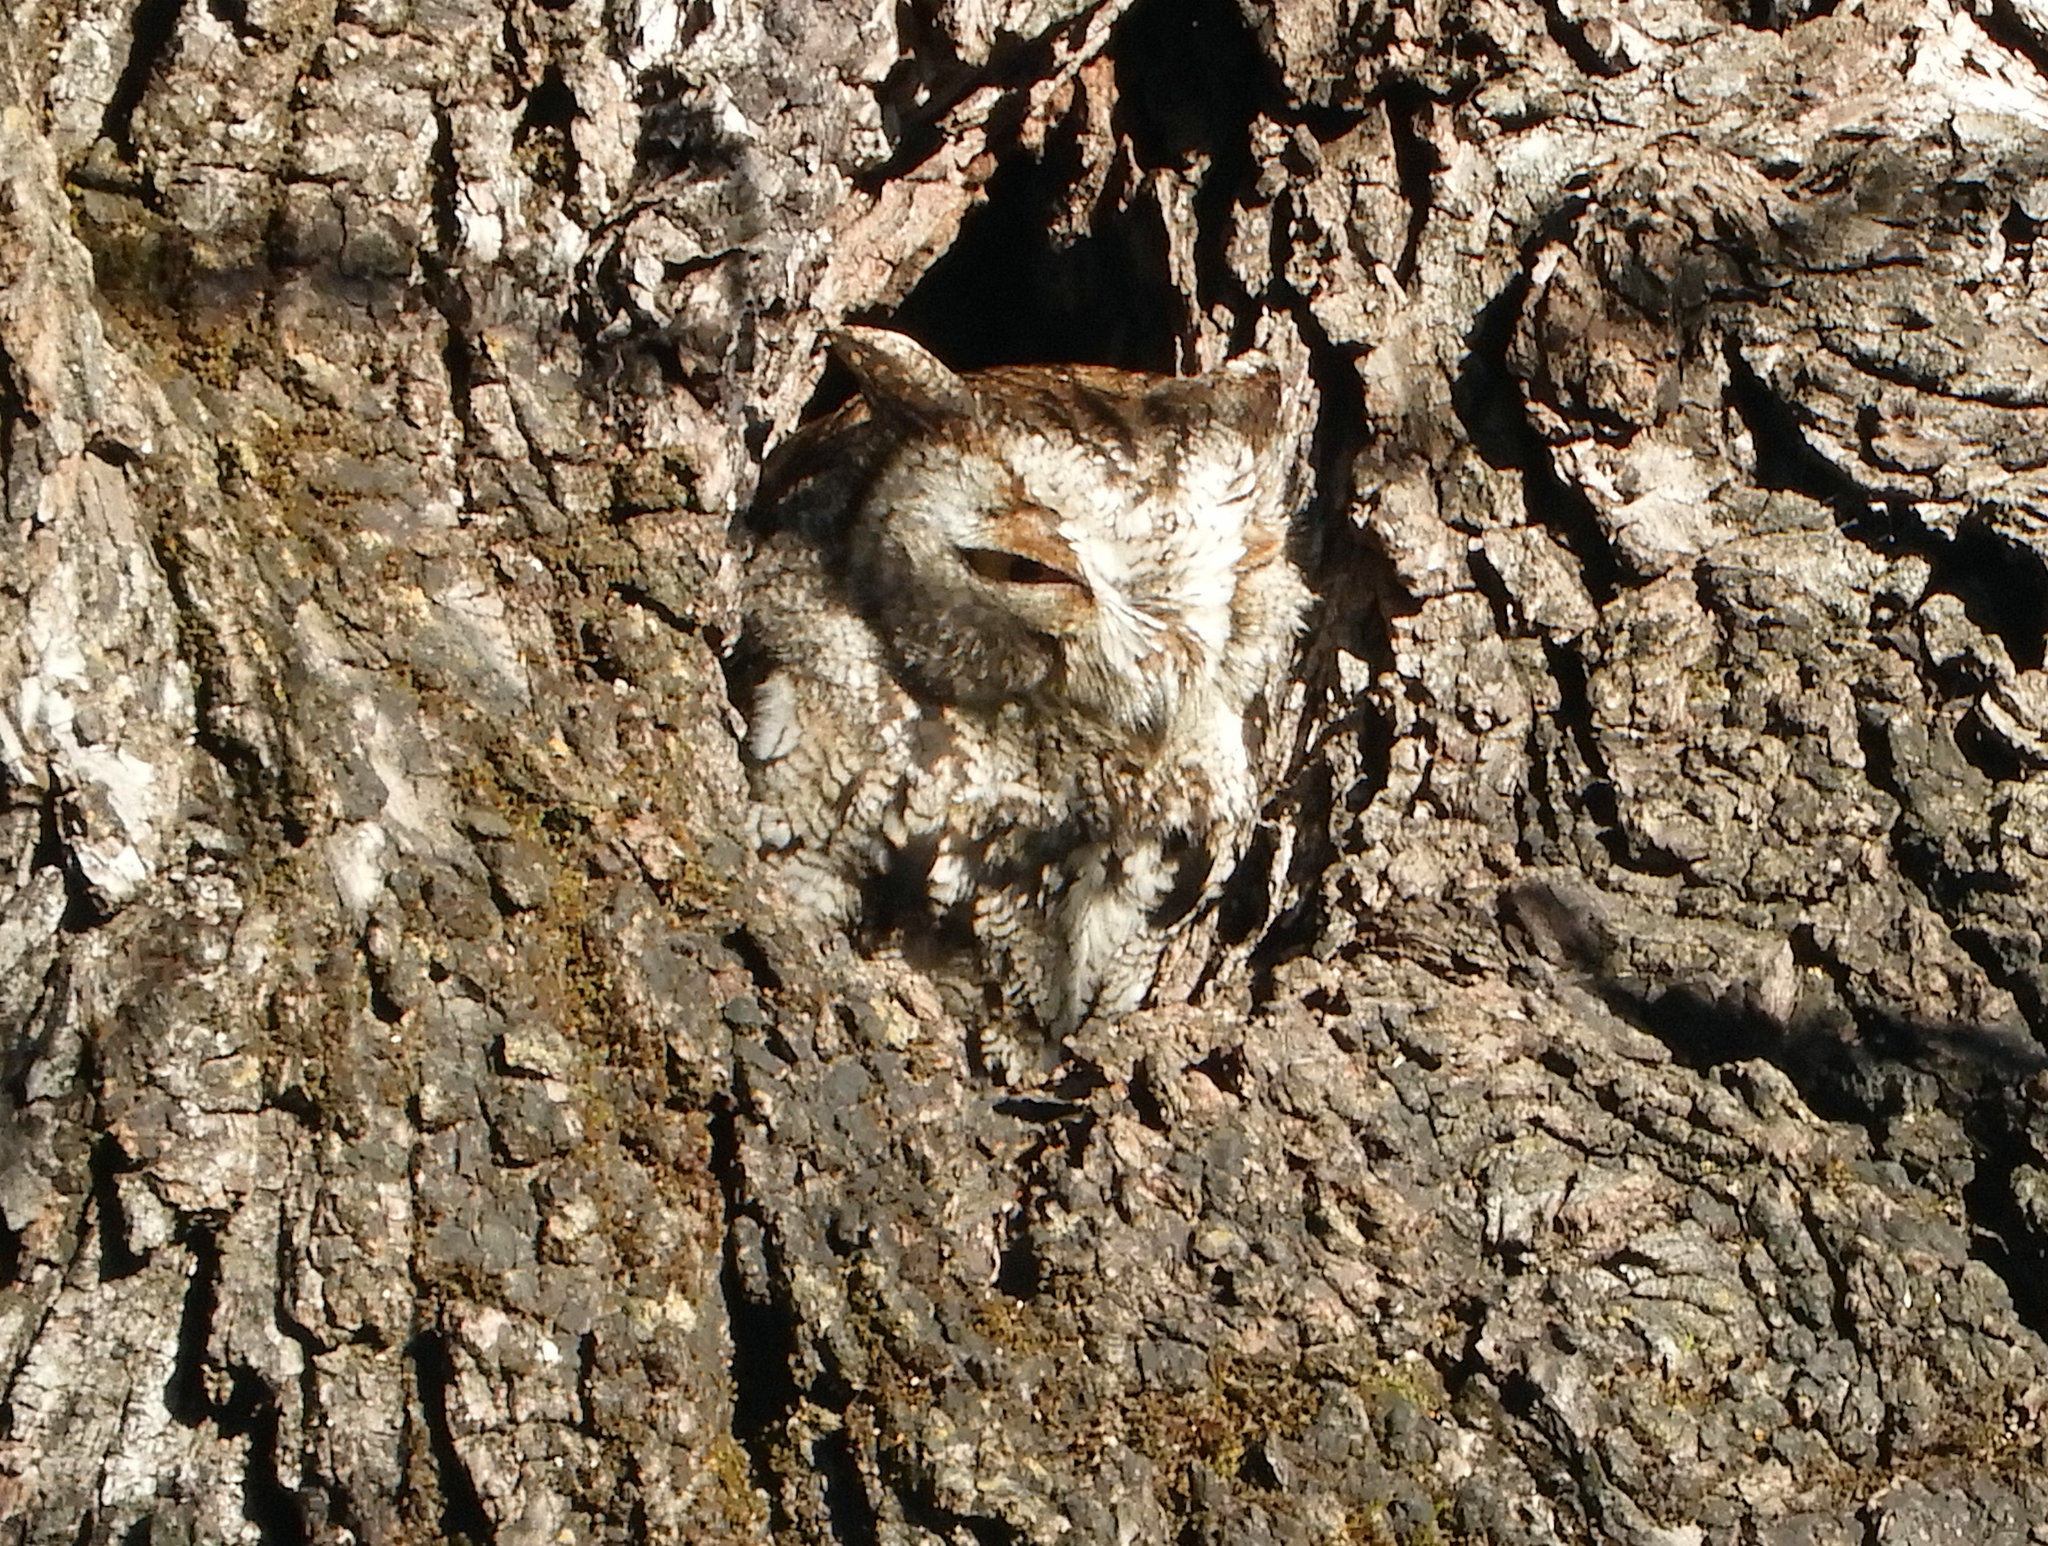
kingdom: Animalia
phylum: Chordata
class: Aves
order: Strigiformes
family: Strigidae
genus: Megascops
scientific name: Megascops kennicottii
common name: Western screech-owl
